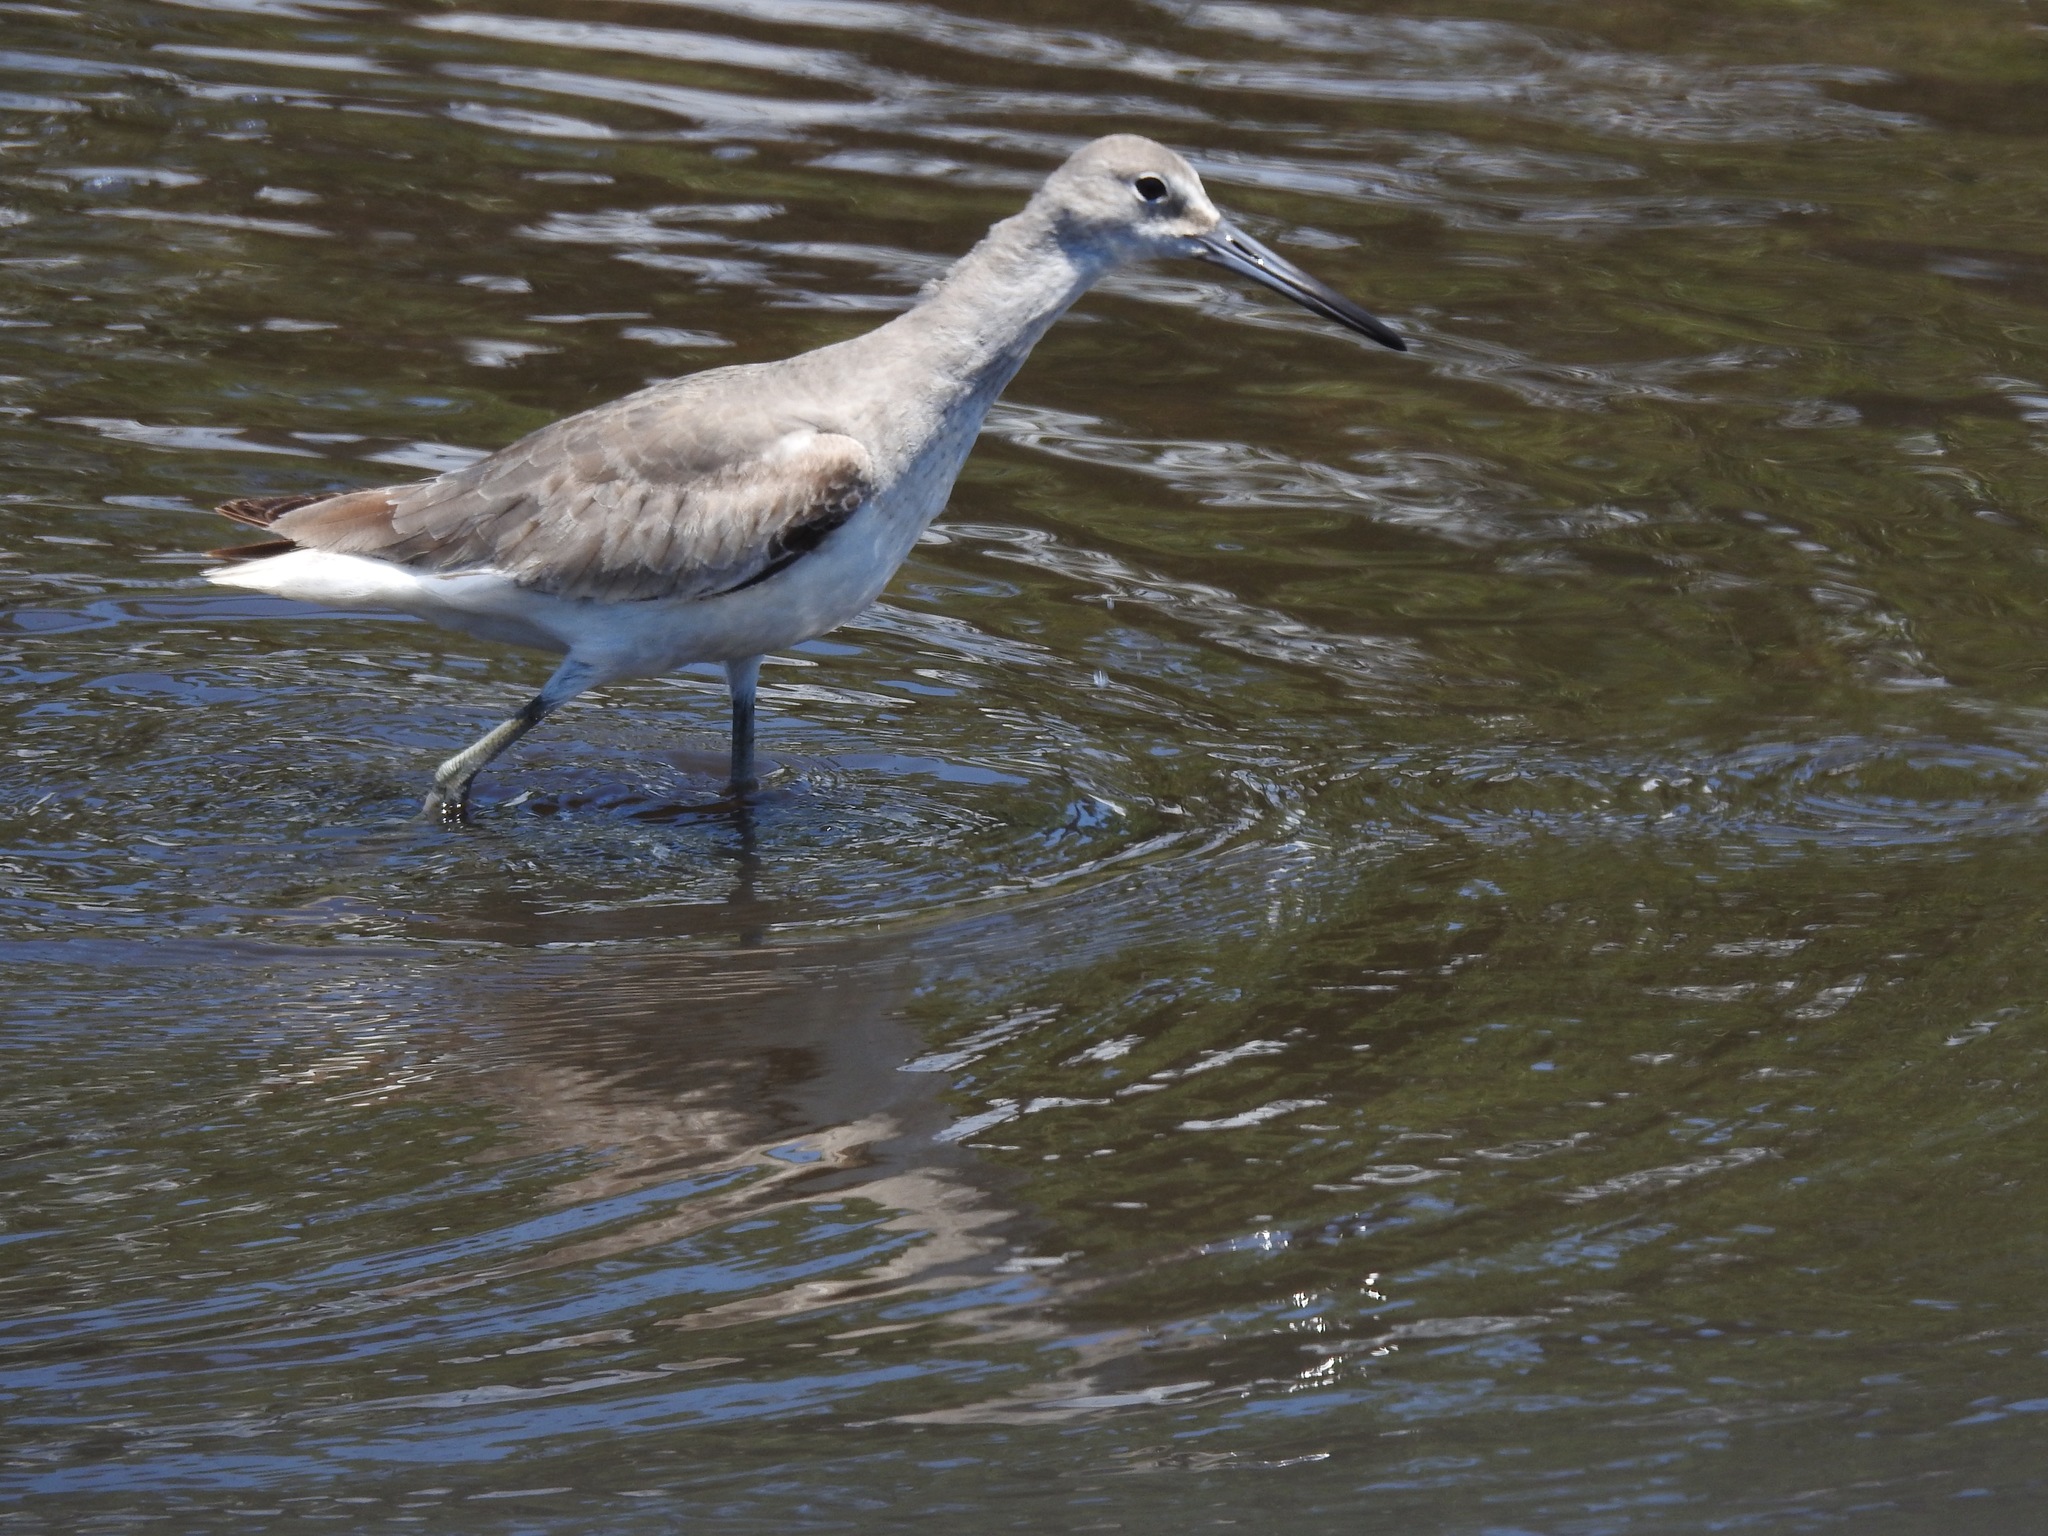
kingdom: Animalia
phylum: Chordata
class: Aves
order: Charadriiformes
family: Scolopacidae
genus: Tringa
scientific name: Tringa semipalmata
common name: Willet
